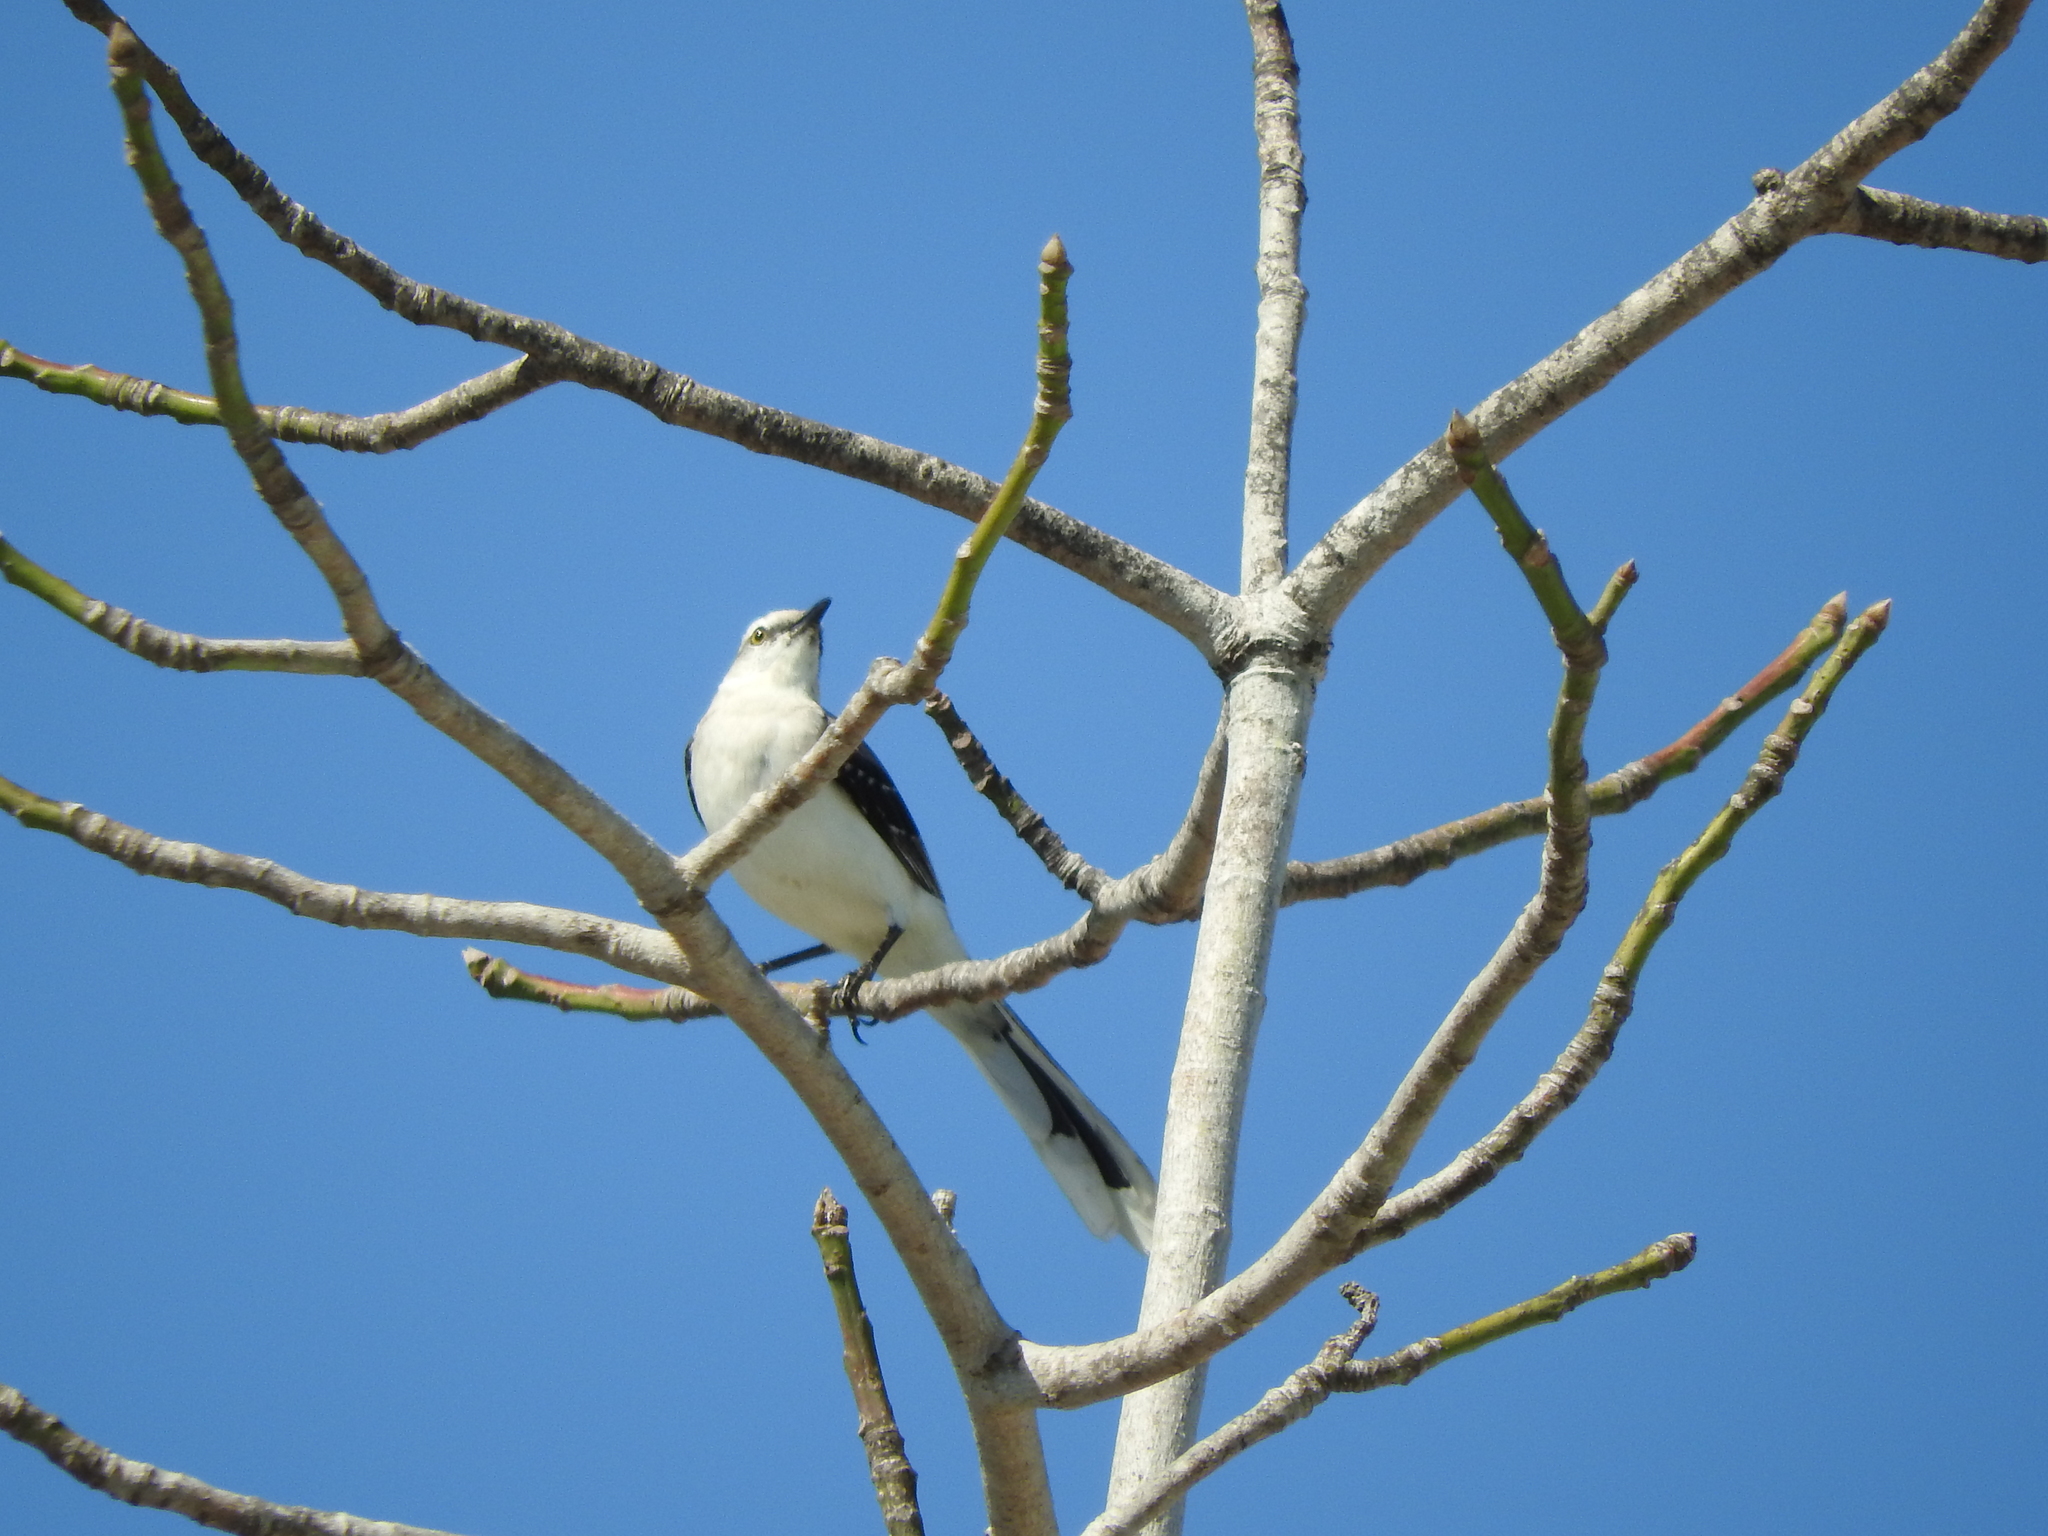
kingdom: Animalia
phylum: Chordata
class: Aves
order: Passeriformes
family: Mimidae
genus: Mimus
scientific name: Mimus gilvus
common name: Tropical mockingbird
